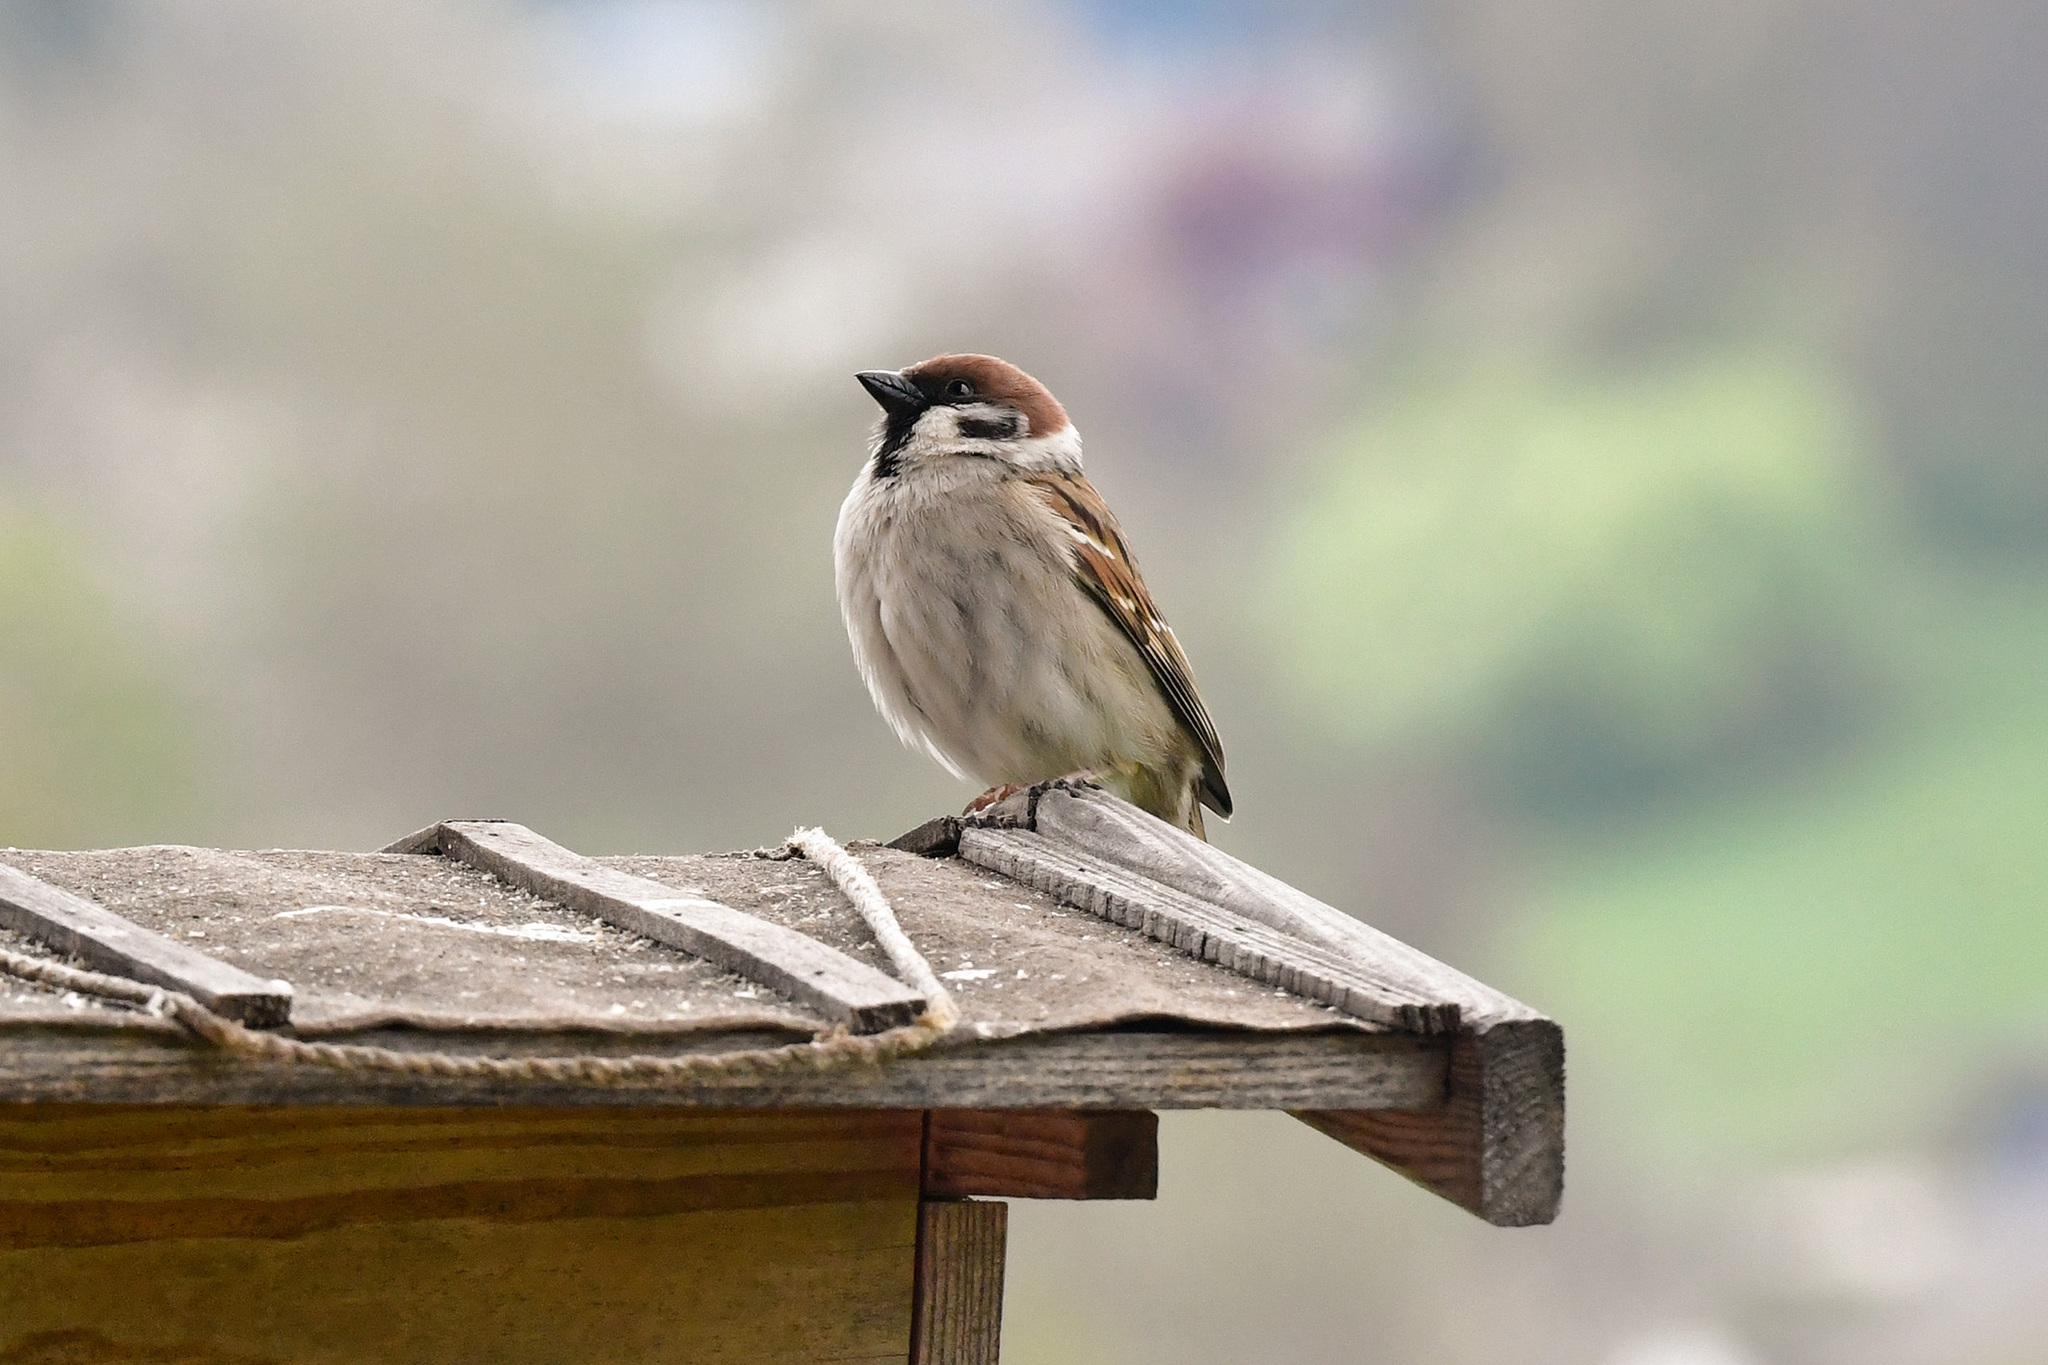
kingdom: Animalia
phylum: Chordata
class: Aves
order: Passeriformes
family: Passeridae
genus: Passer
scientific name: Passer montanus
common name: Eurasian tree sparrow
